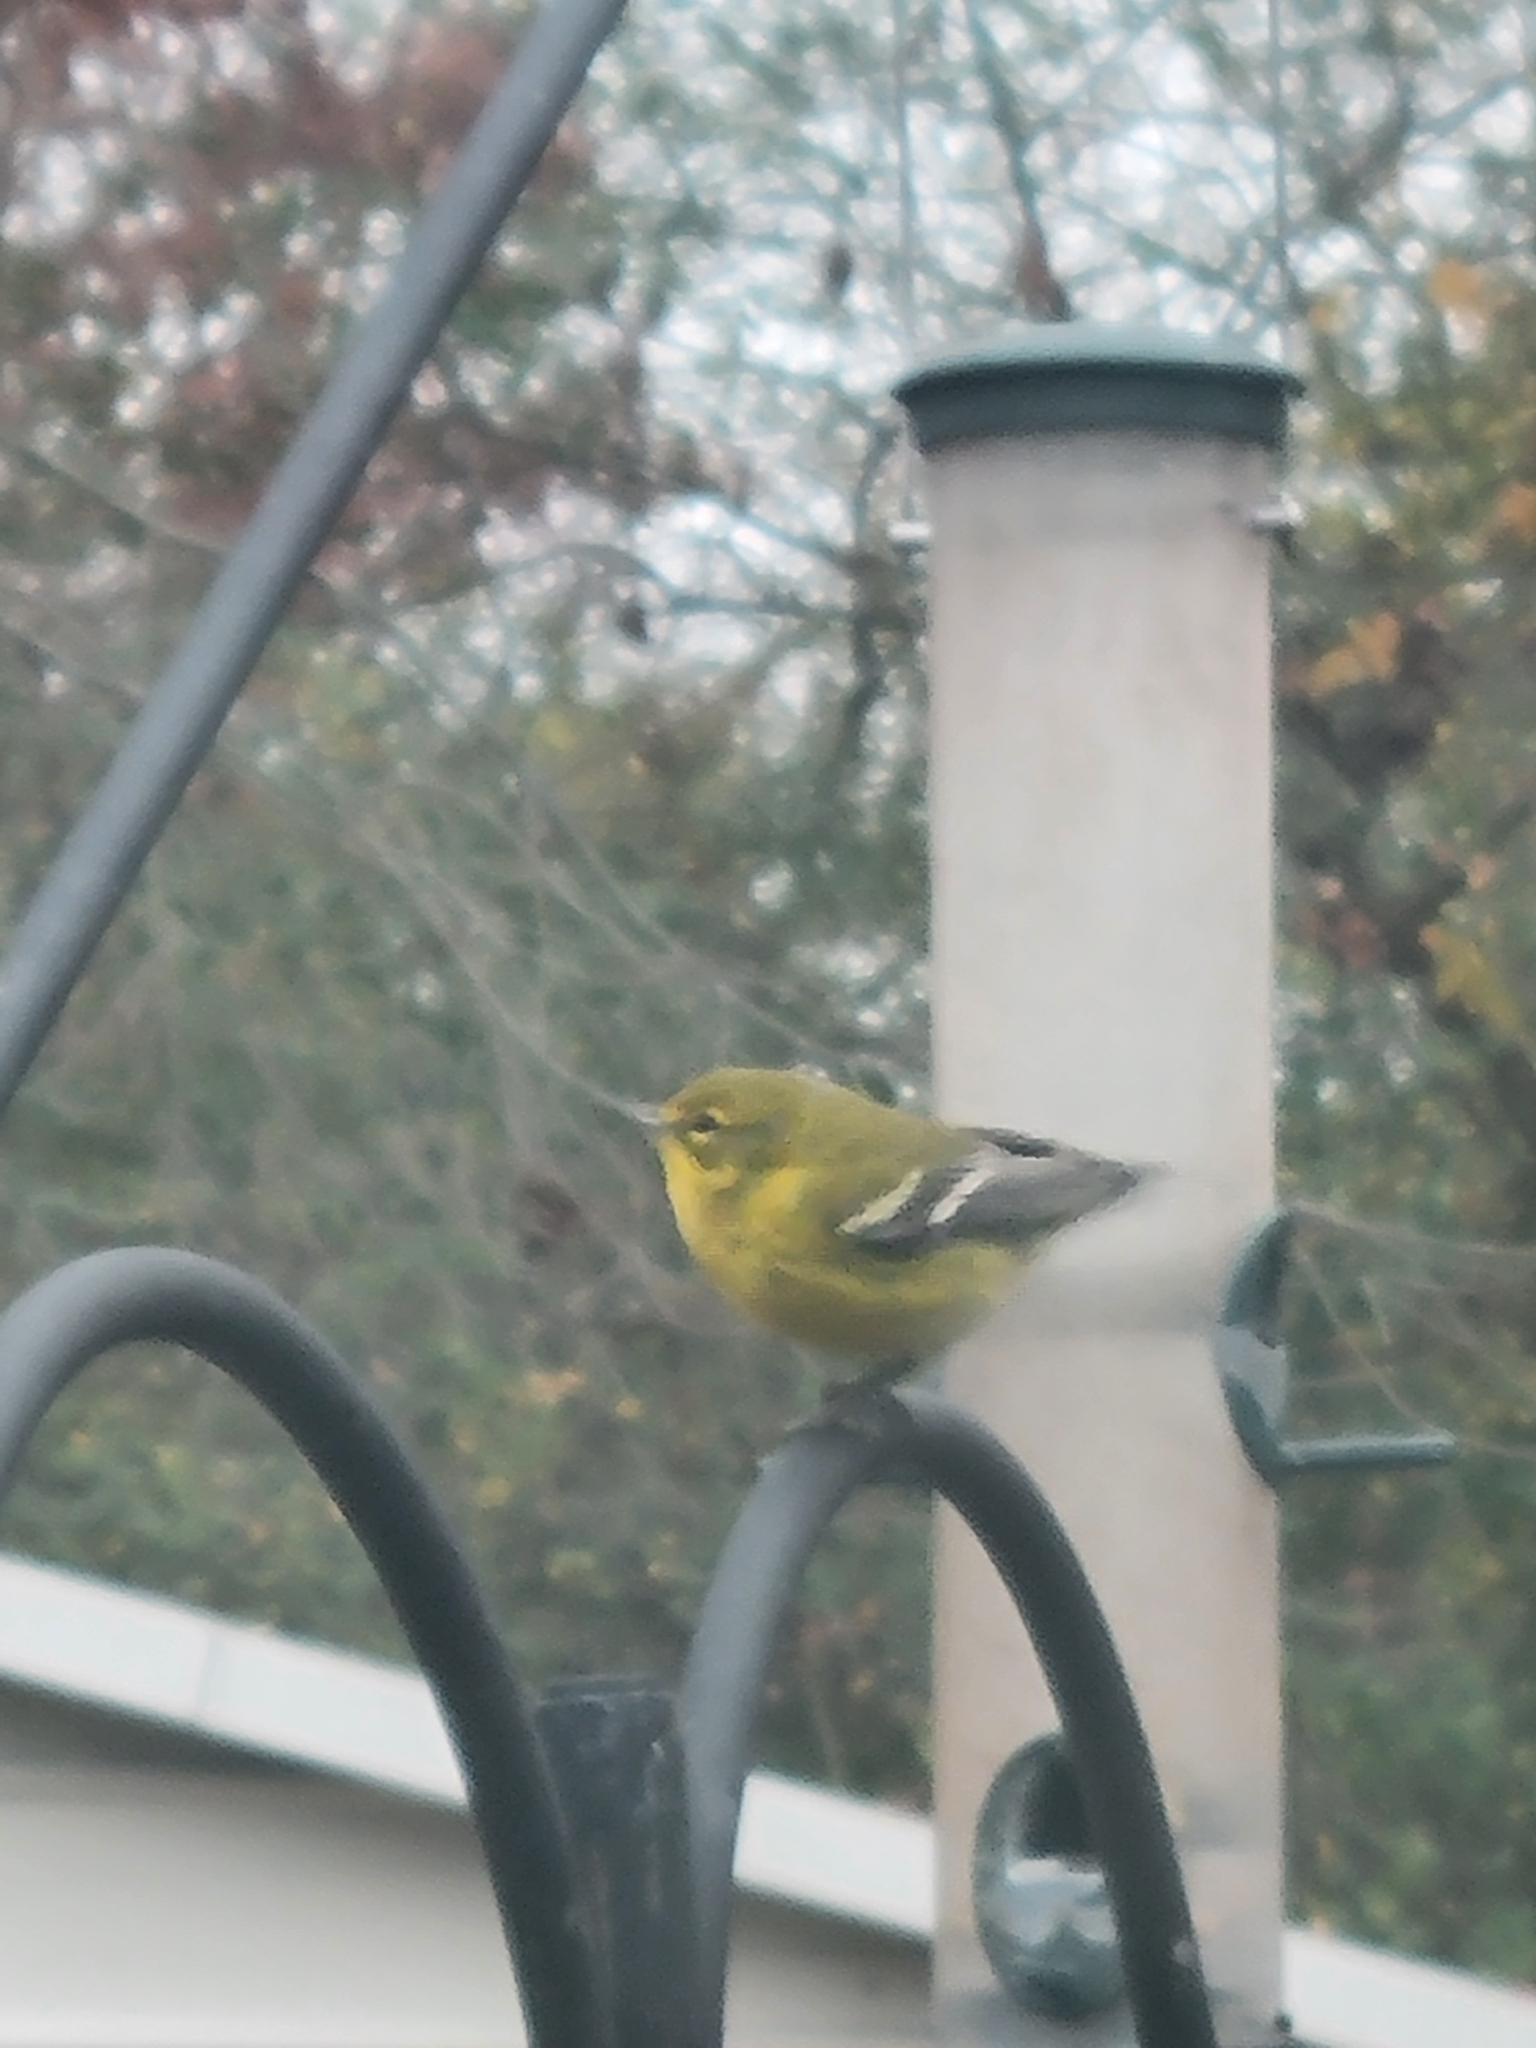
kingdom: Animalia
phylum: Chordata
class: Aves
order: Passeriformes
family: Parulidae
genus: Setophaga
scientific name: Setophaga pinus
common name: Pine warbler
